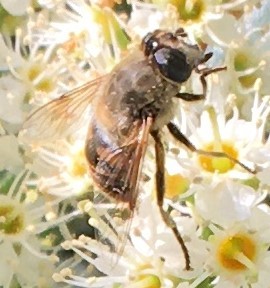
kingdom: Animalia
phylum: Arthropoda
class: Insecta
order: Diptera
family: Syrphidae
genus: Eristalis
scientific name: Eristalis tenax
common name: Drone fly
